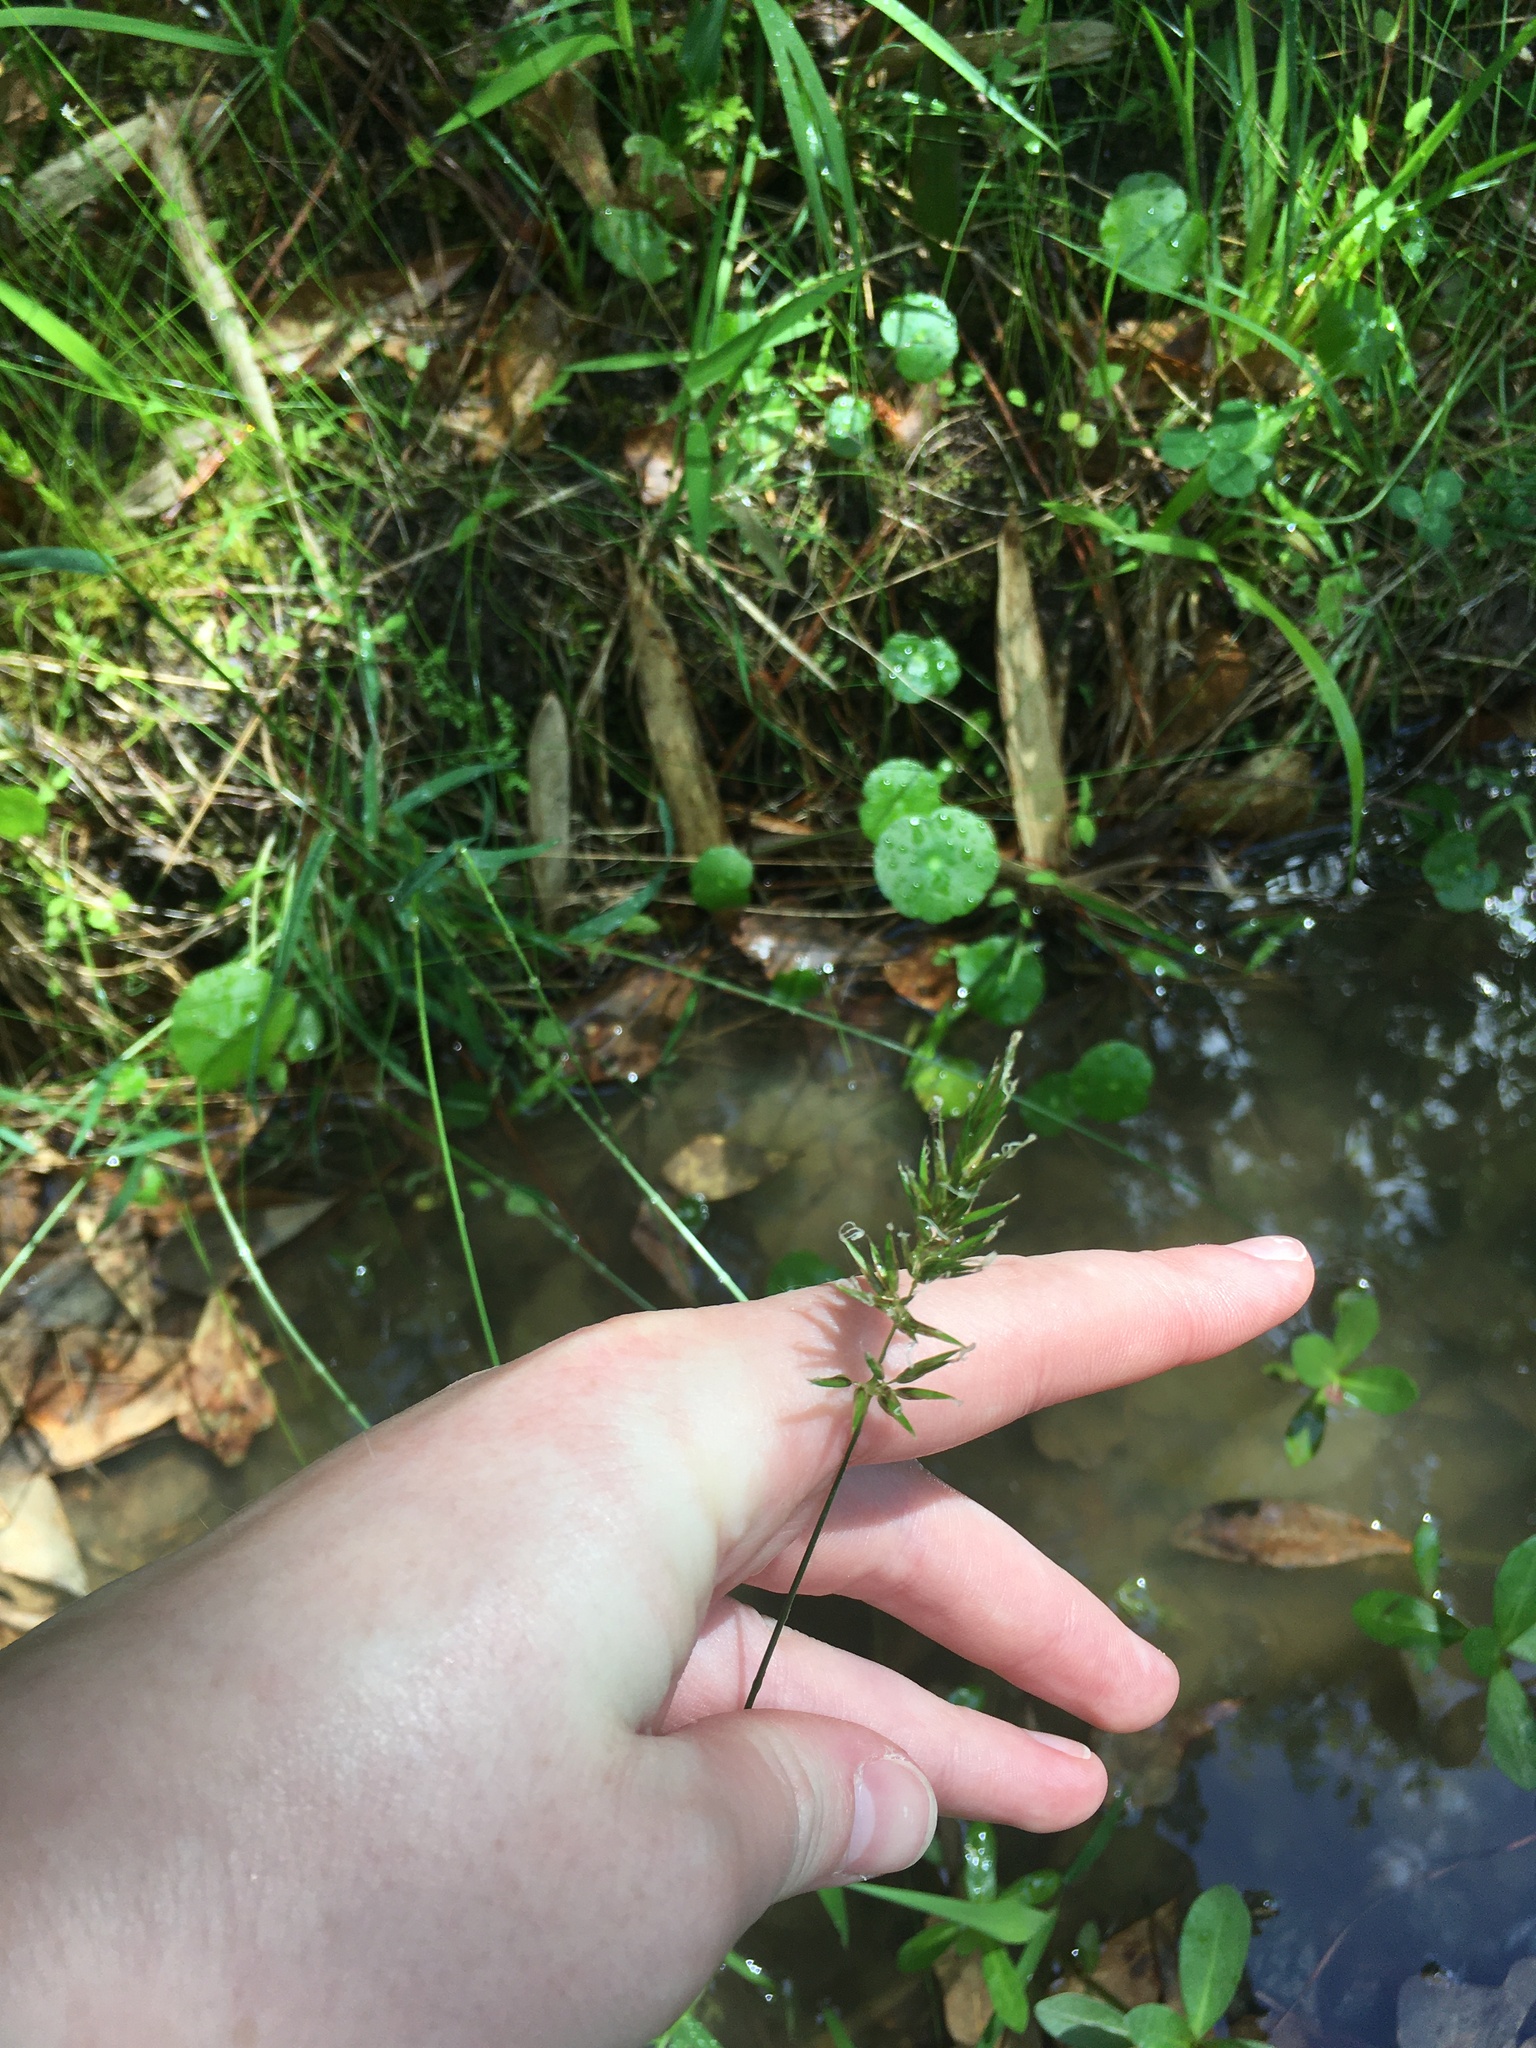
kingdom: Plantae
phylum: Tracheophyta
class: Liliopsida
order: Poales
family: Poaceae
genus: Anthoxanthum
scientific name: Anthoxanthum odoratum
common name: Sweet vernalgrass
